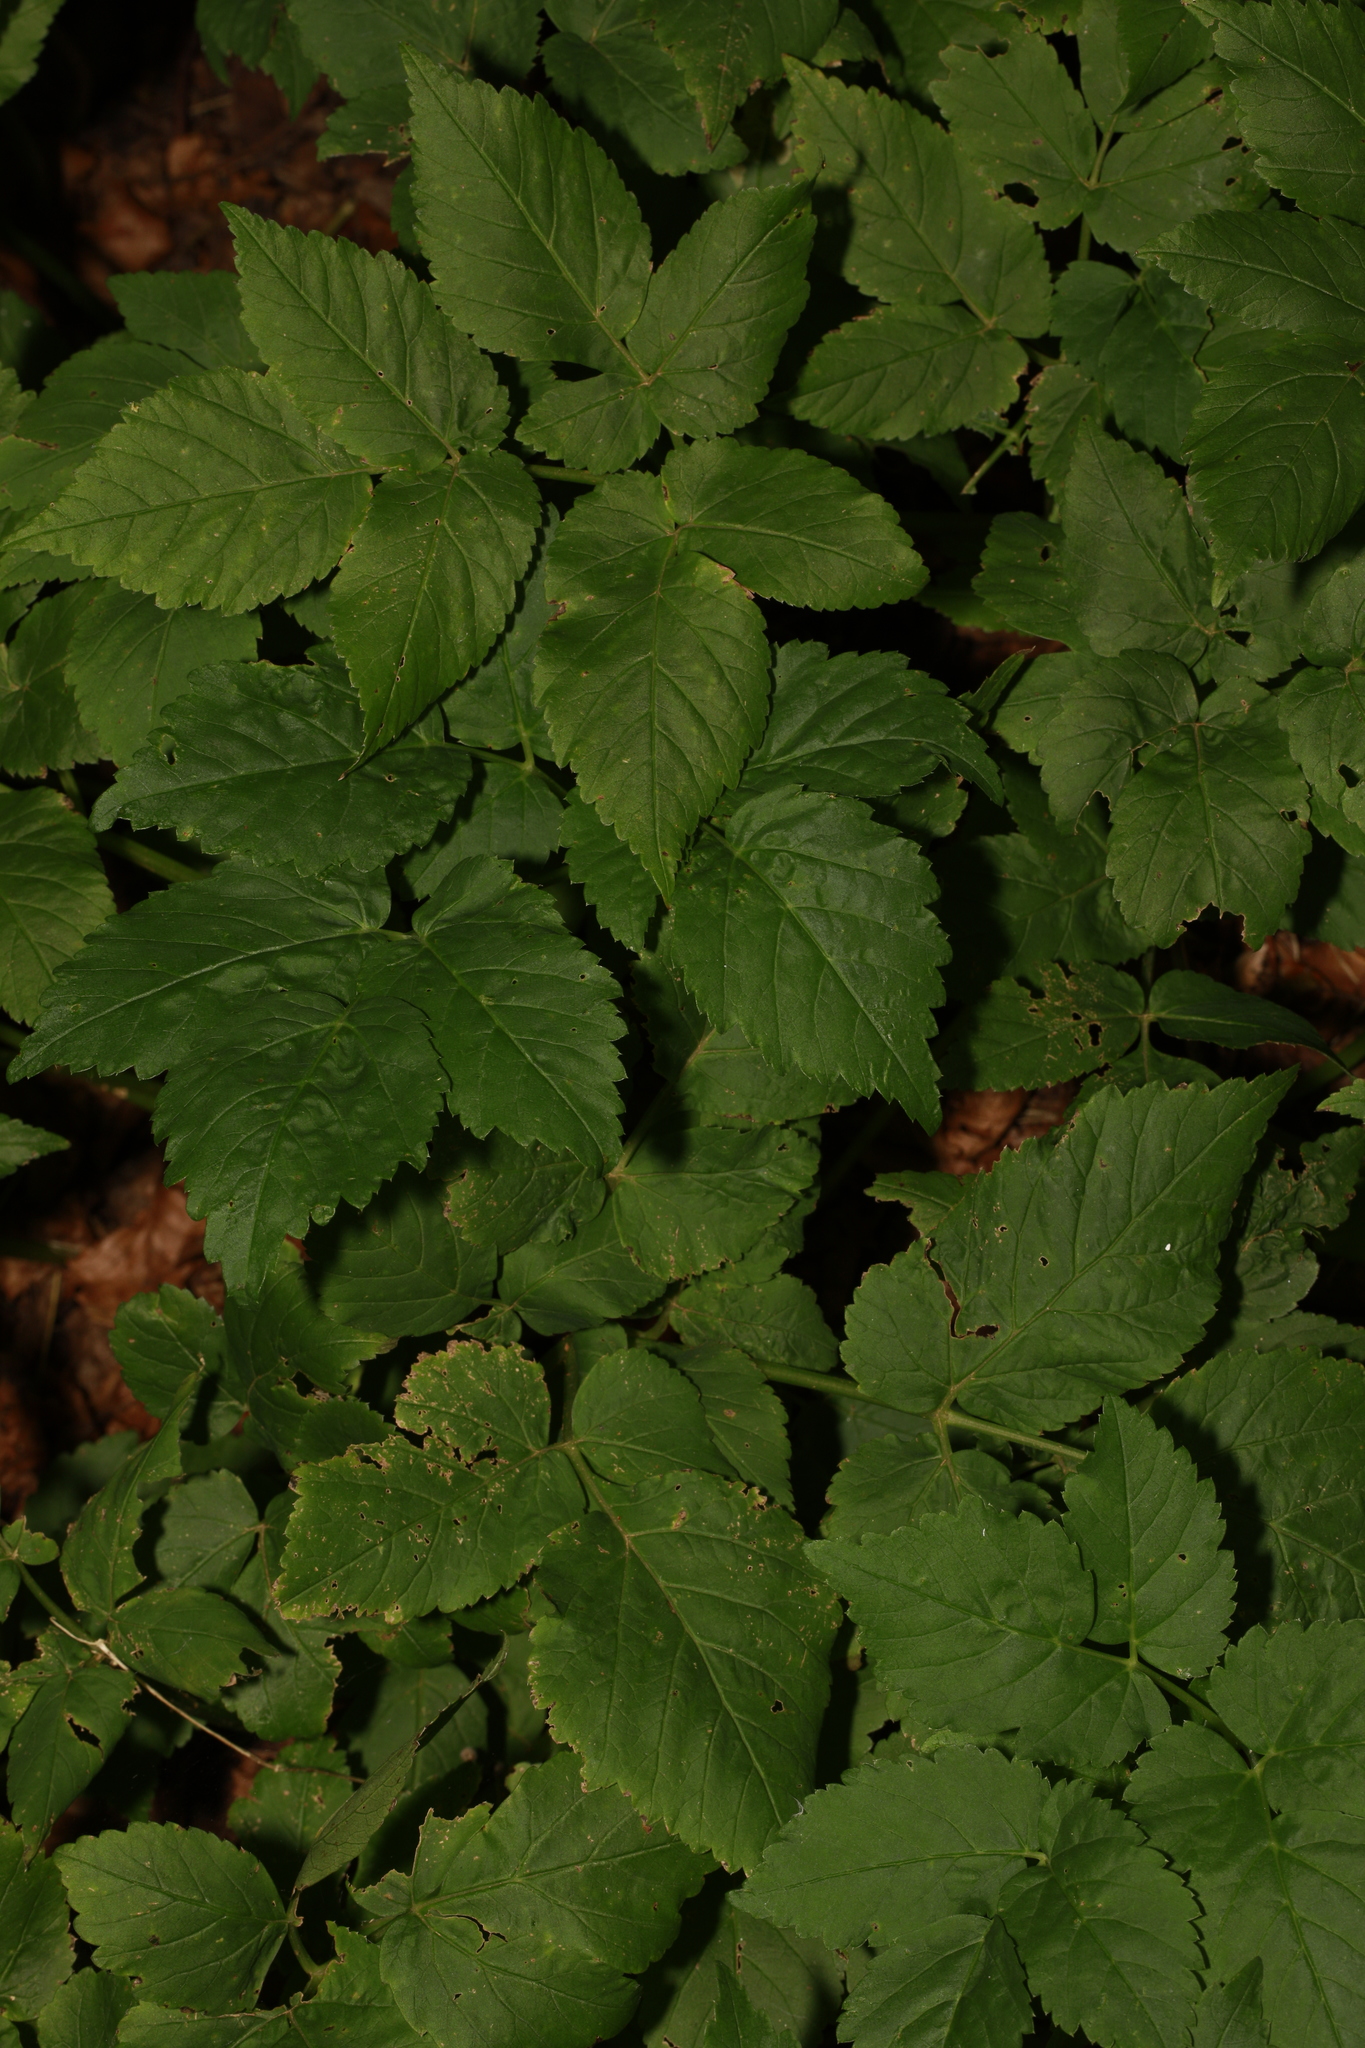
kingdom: Plantae
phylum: Tracheophyta
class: Magnoliopsida
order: Apiales
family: Apiaceae
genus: Aegopodium
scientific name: Aegopodium podagraria
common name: Ground-elder
